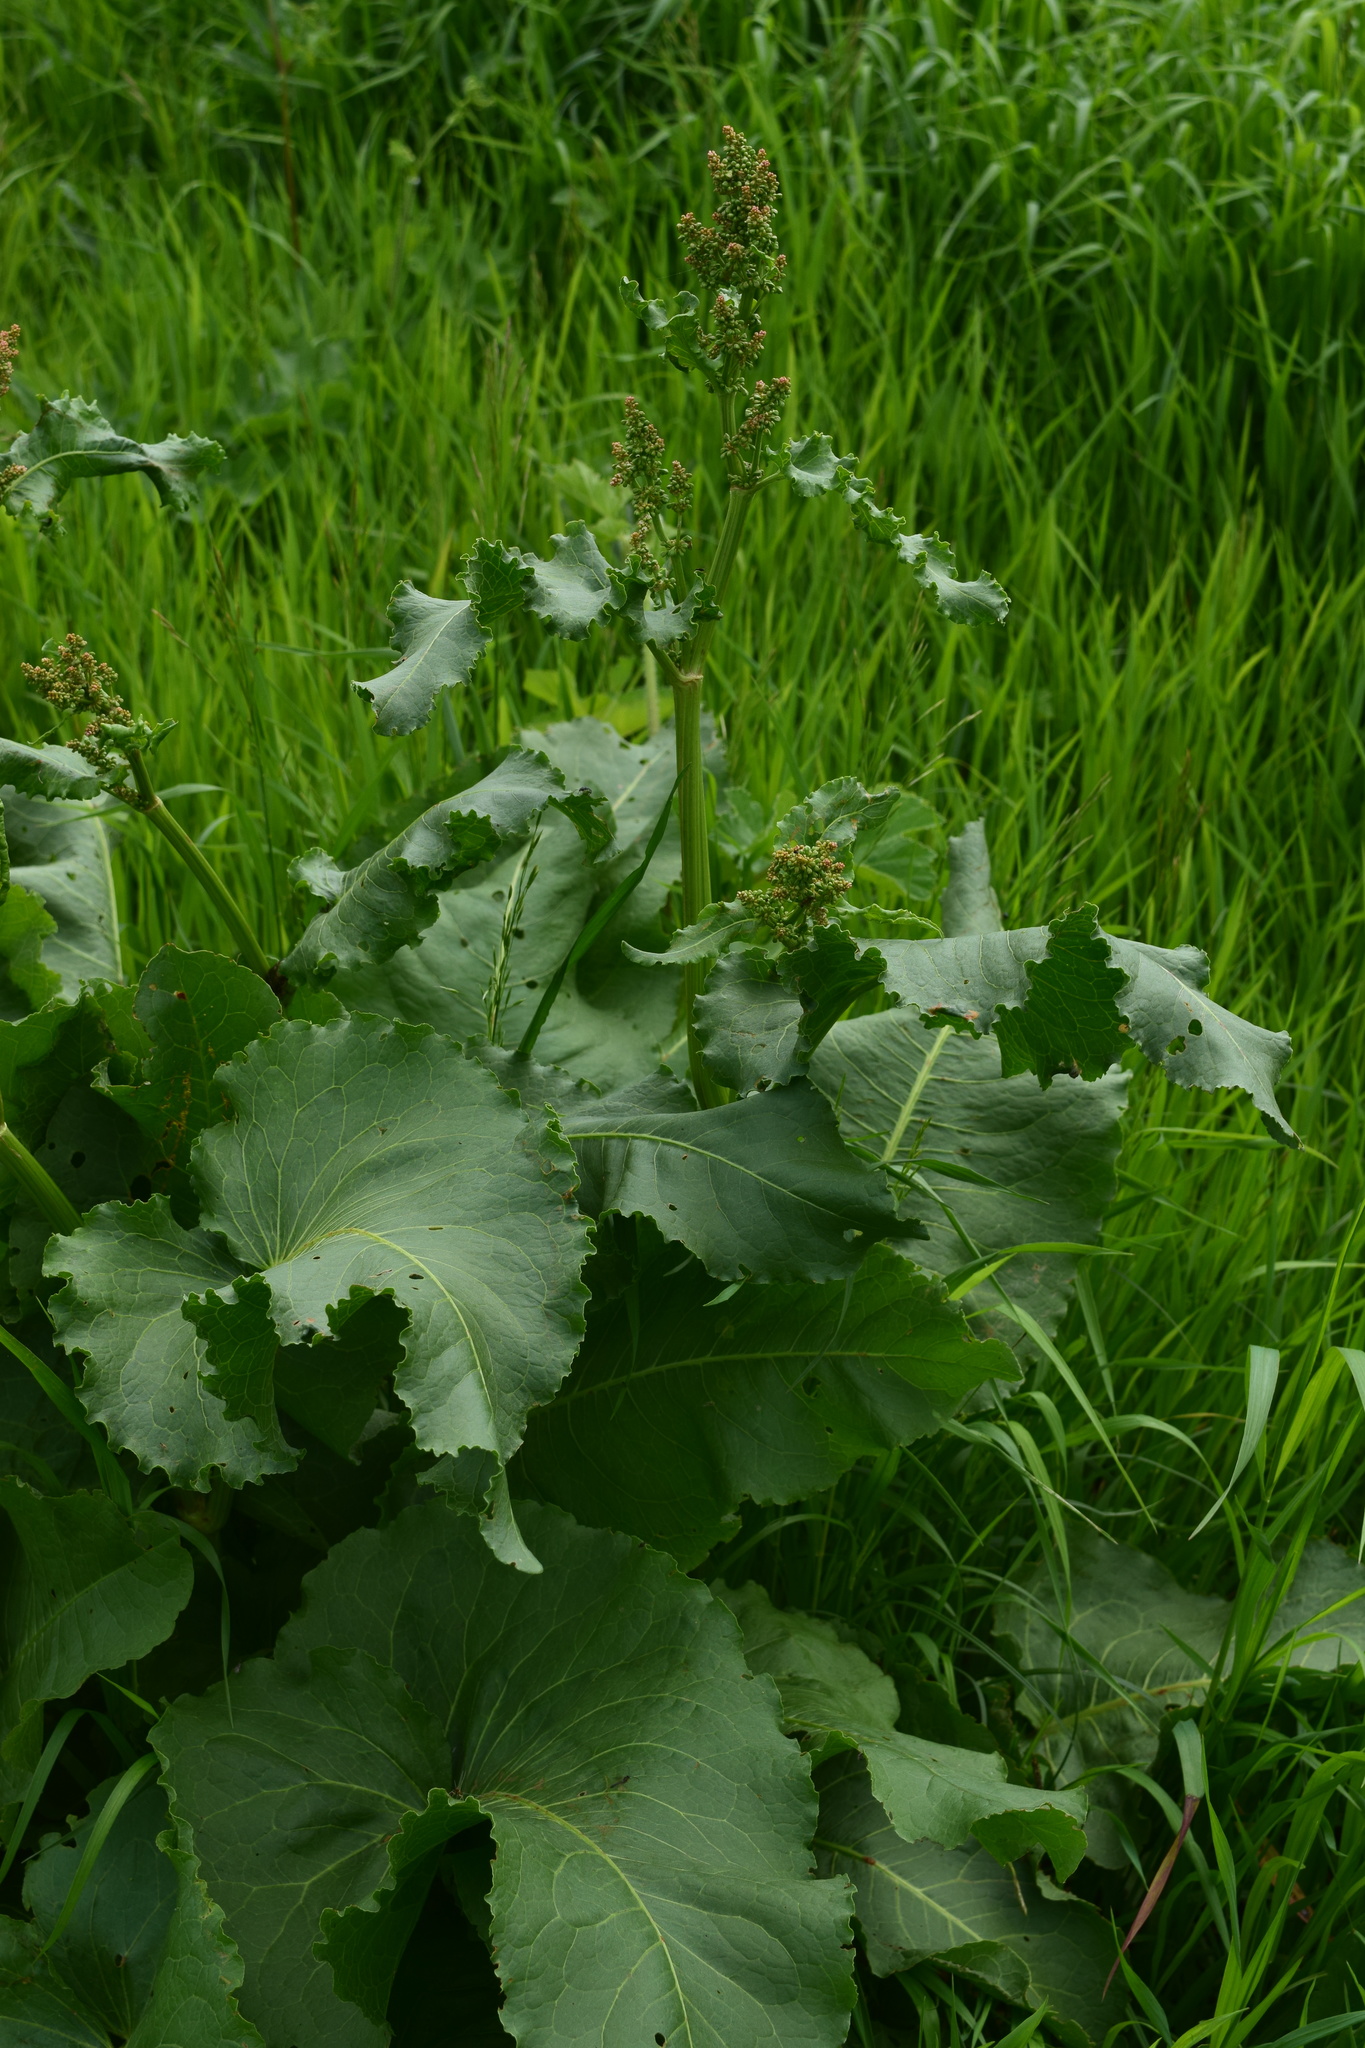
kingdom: Plantae
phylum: Tracheophyta
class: Magnoliopsida
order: Caryophyllales
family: Polygonaceae
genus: Rumex
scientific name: Rumex confertus
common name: Russian dock
